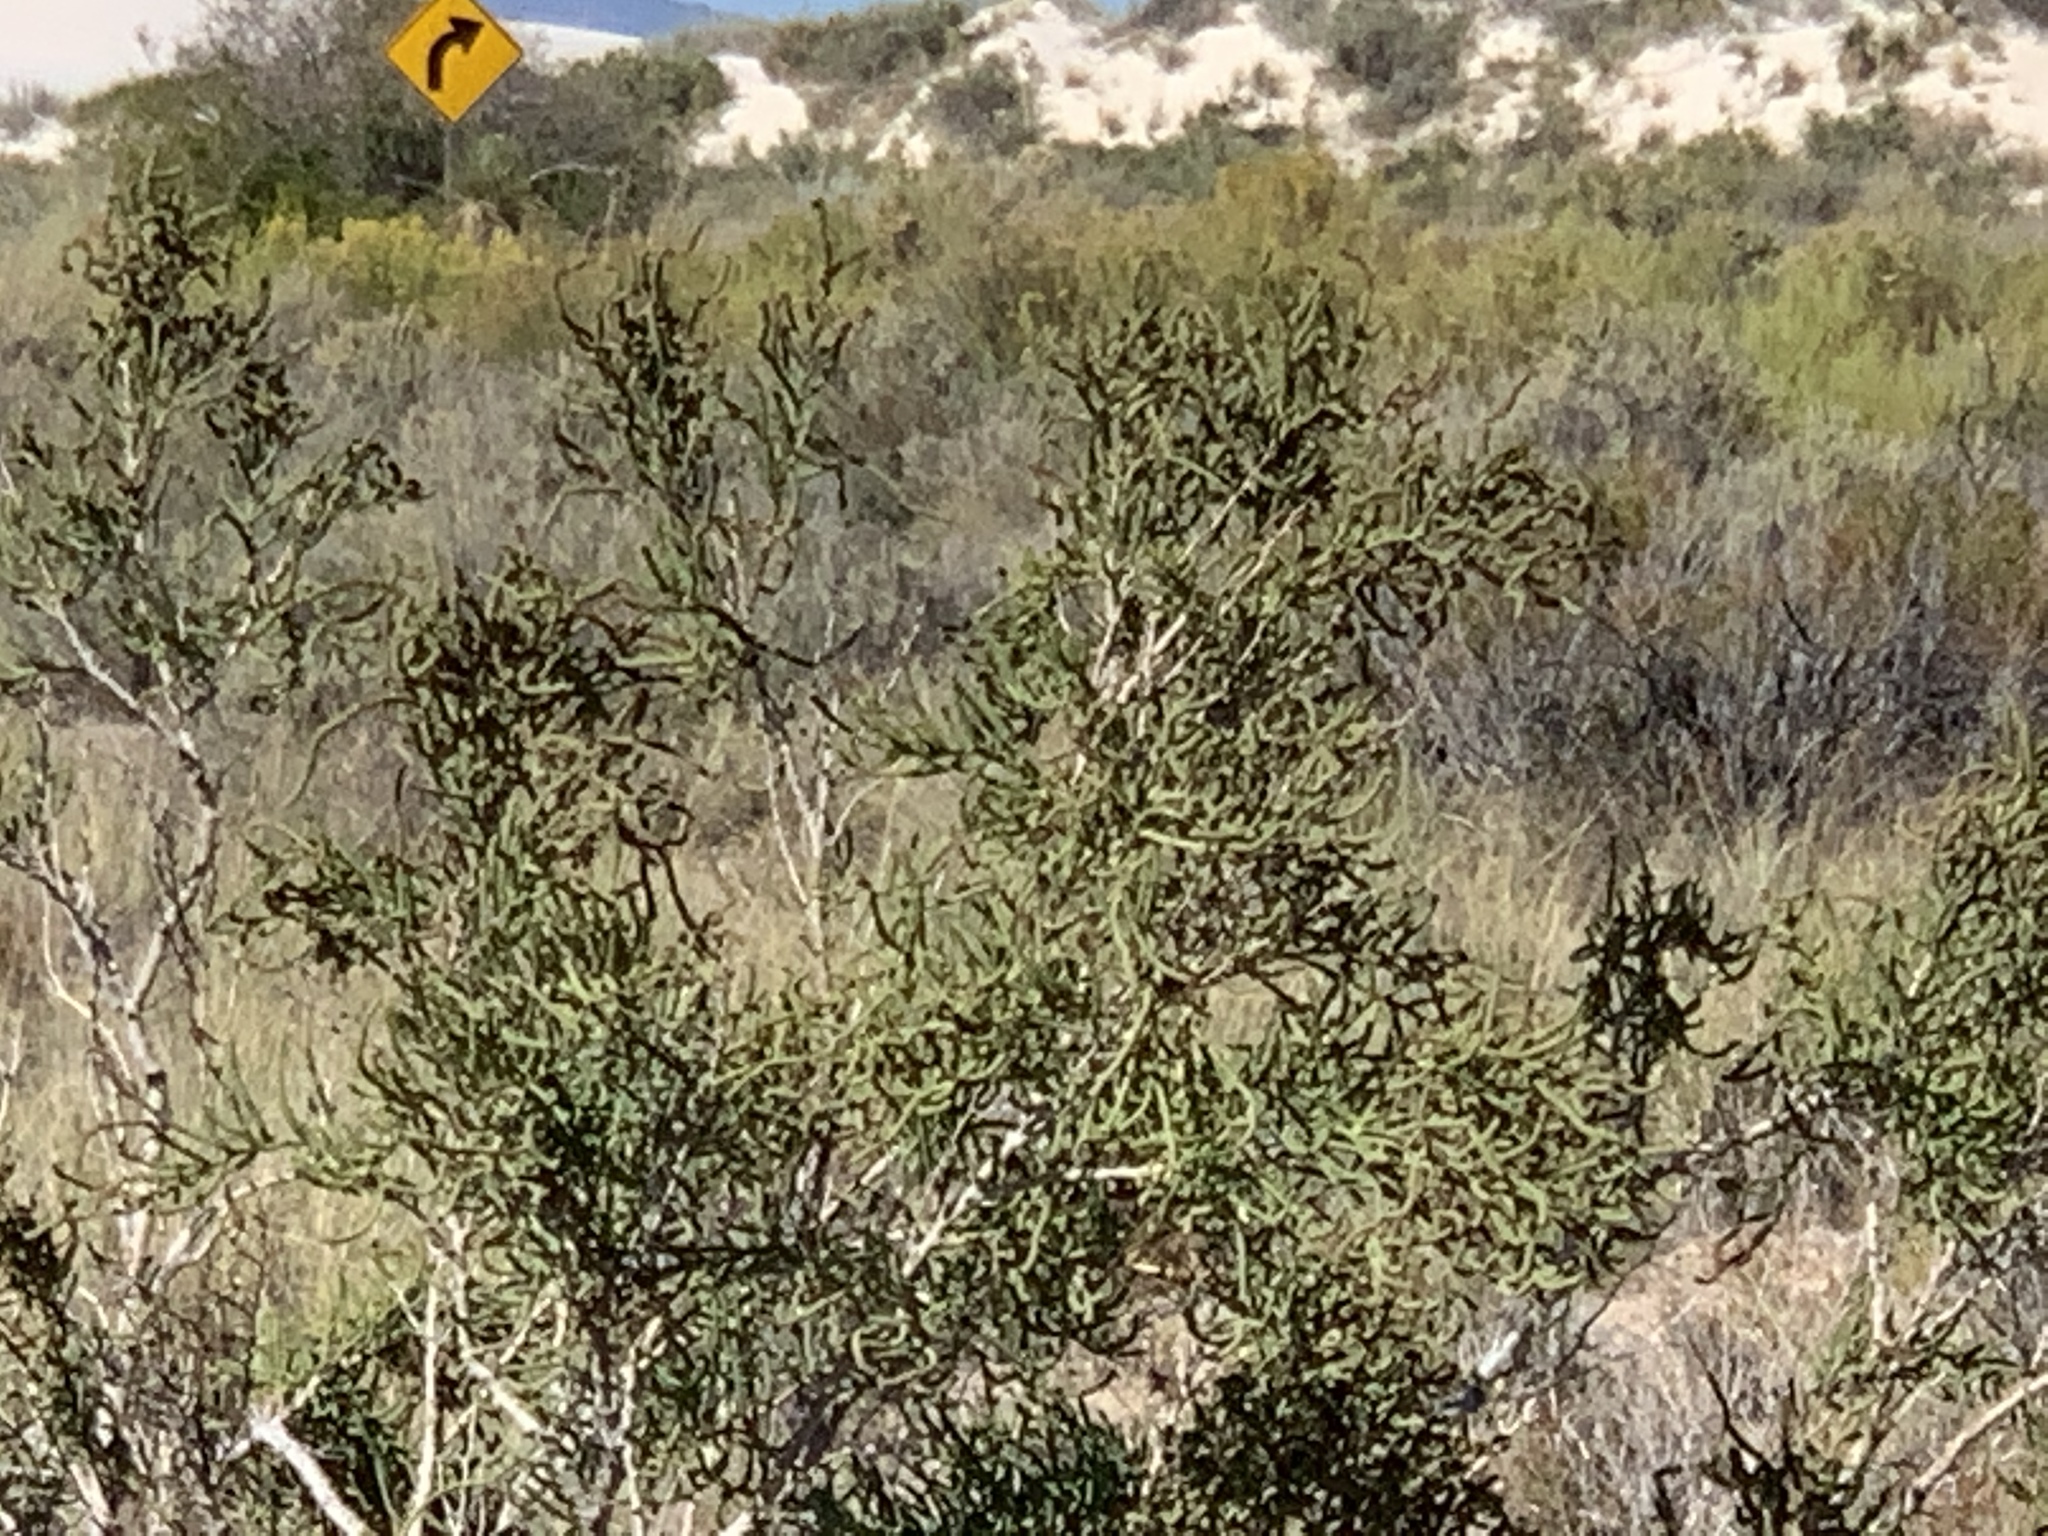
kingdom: Plantae
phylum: Tracheophyta
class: Magnoliopsida
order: Caryophyllales
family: Amaranthaceae
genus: Allenrolfea
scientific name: Allenrolfea occidentalis
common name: Iodine-bush
